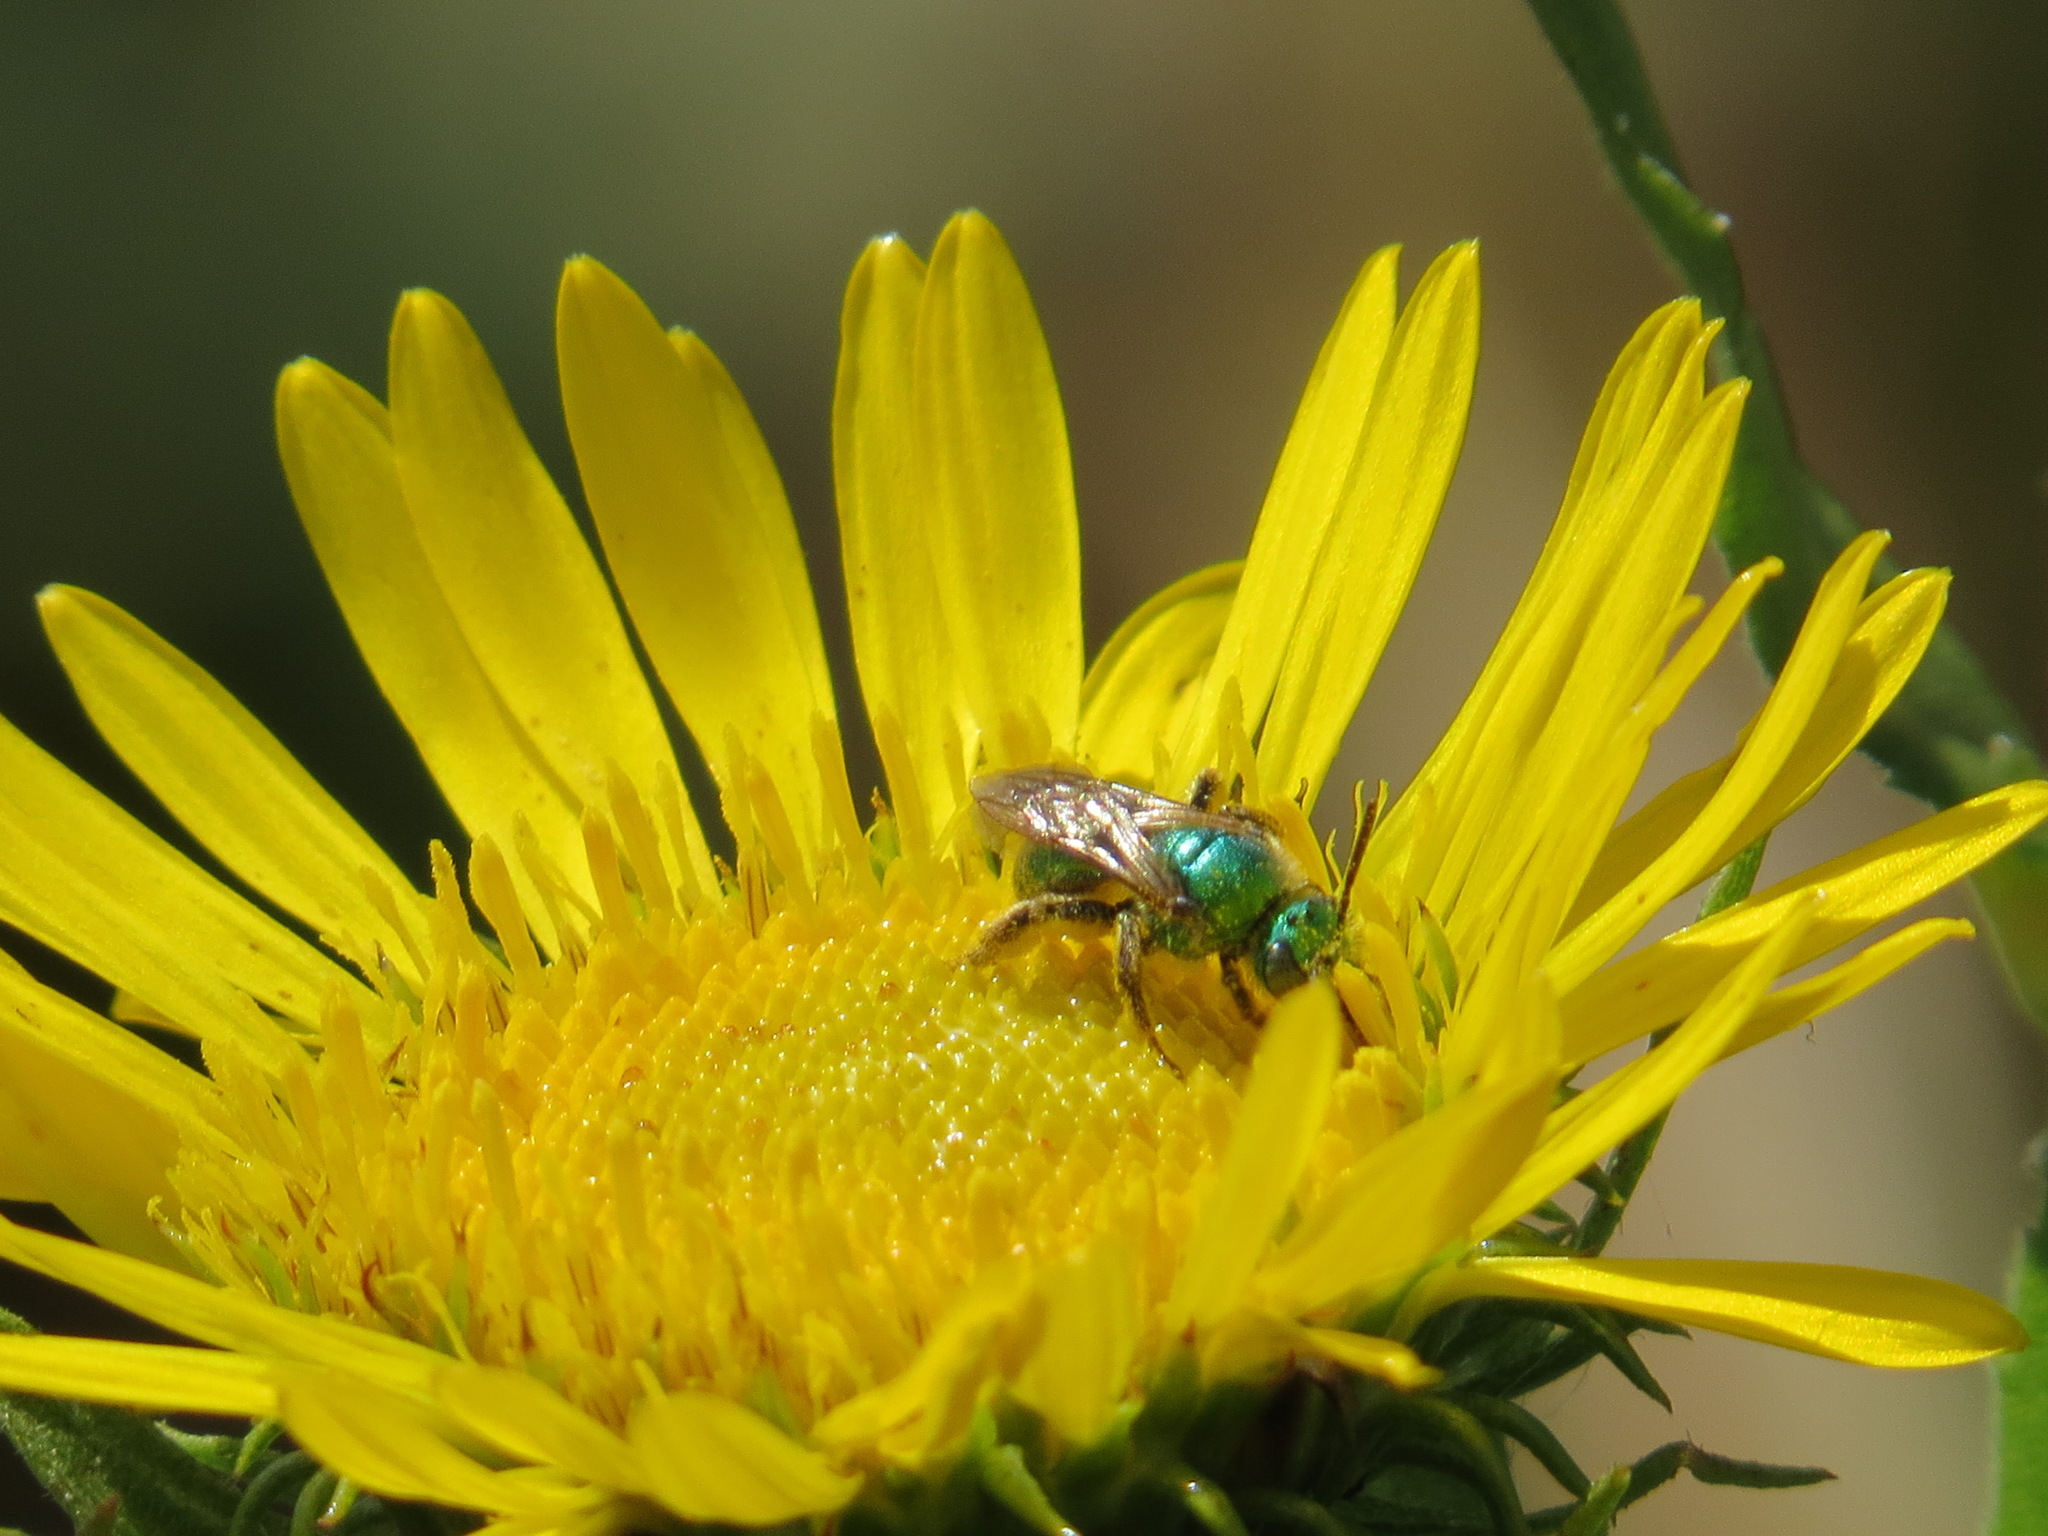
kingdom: Animalia
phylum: Arthropoda
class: Insecta
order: Hymenoptera
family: Halictidae
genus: Agapostemon
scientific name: Agapostemon texanus
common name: Texas striped sweat bee
